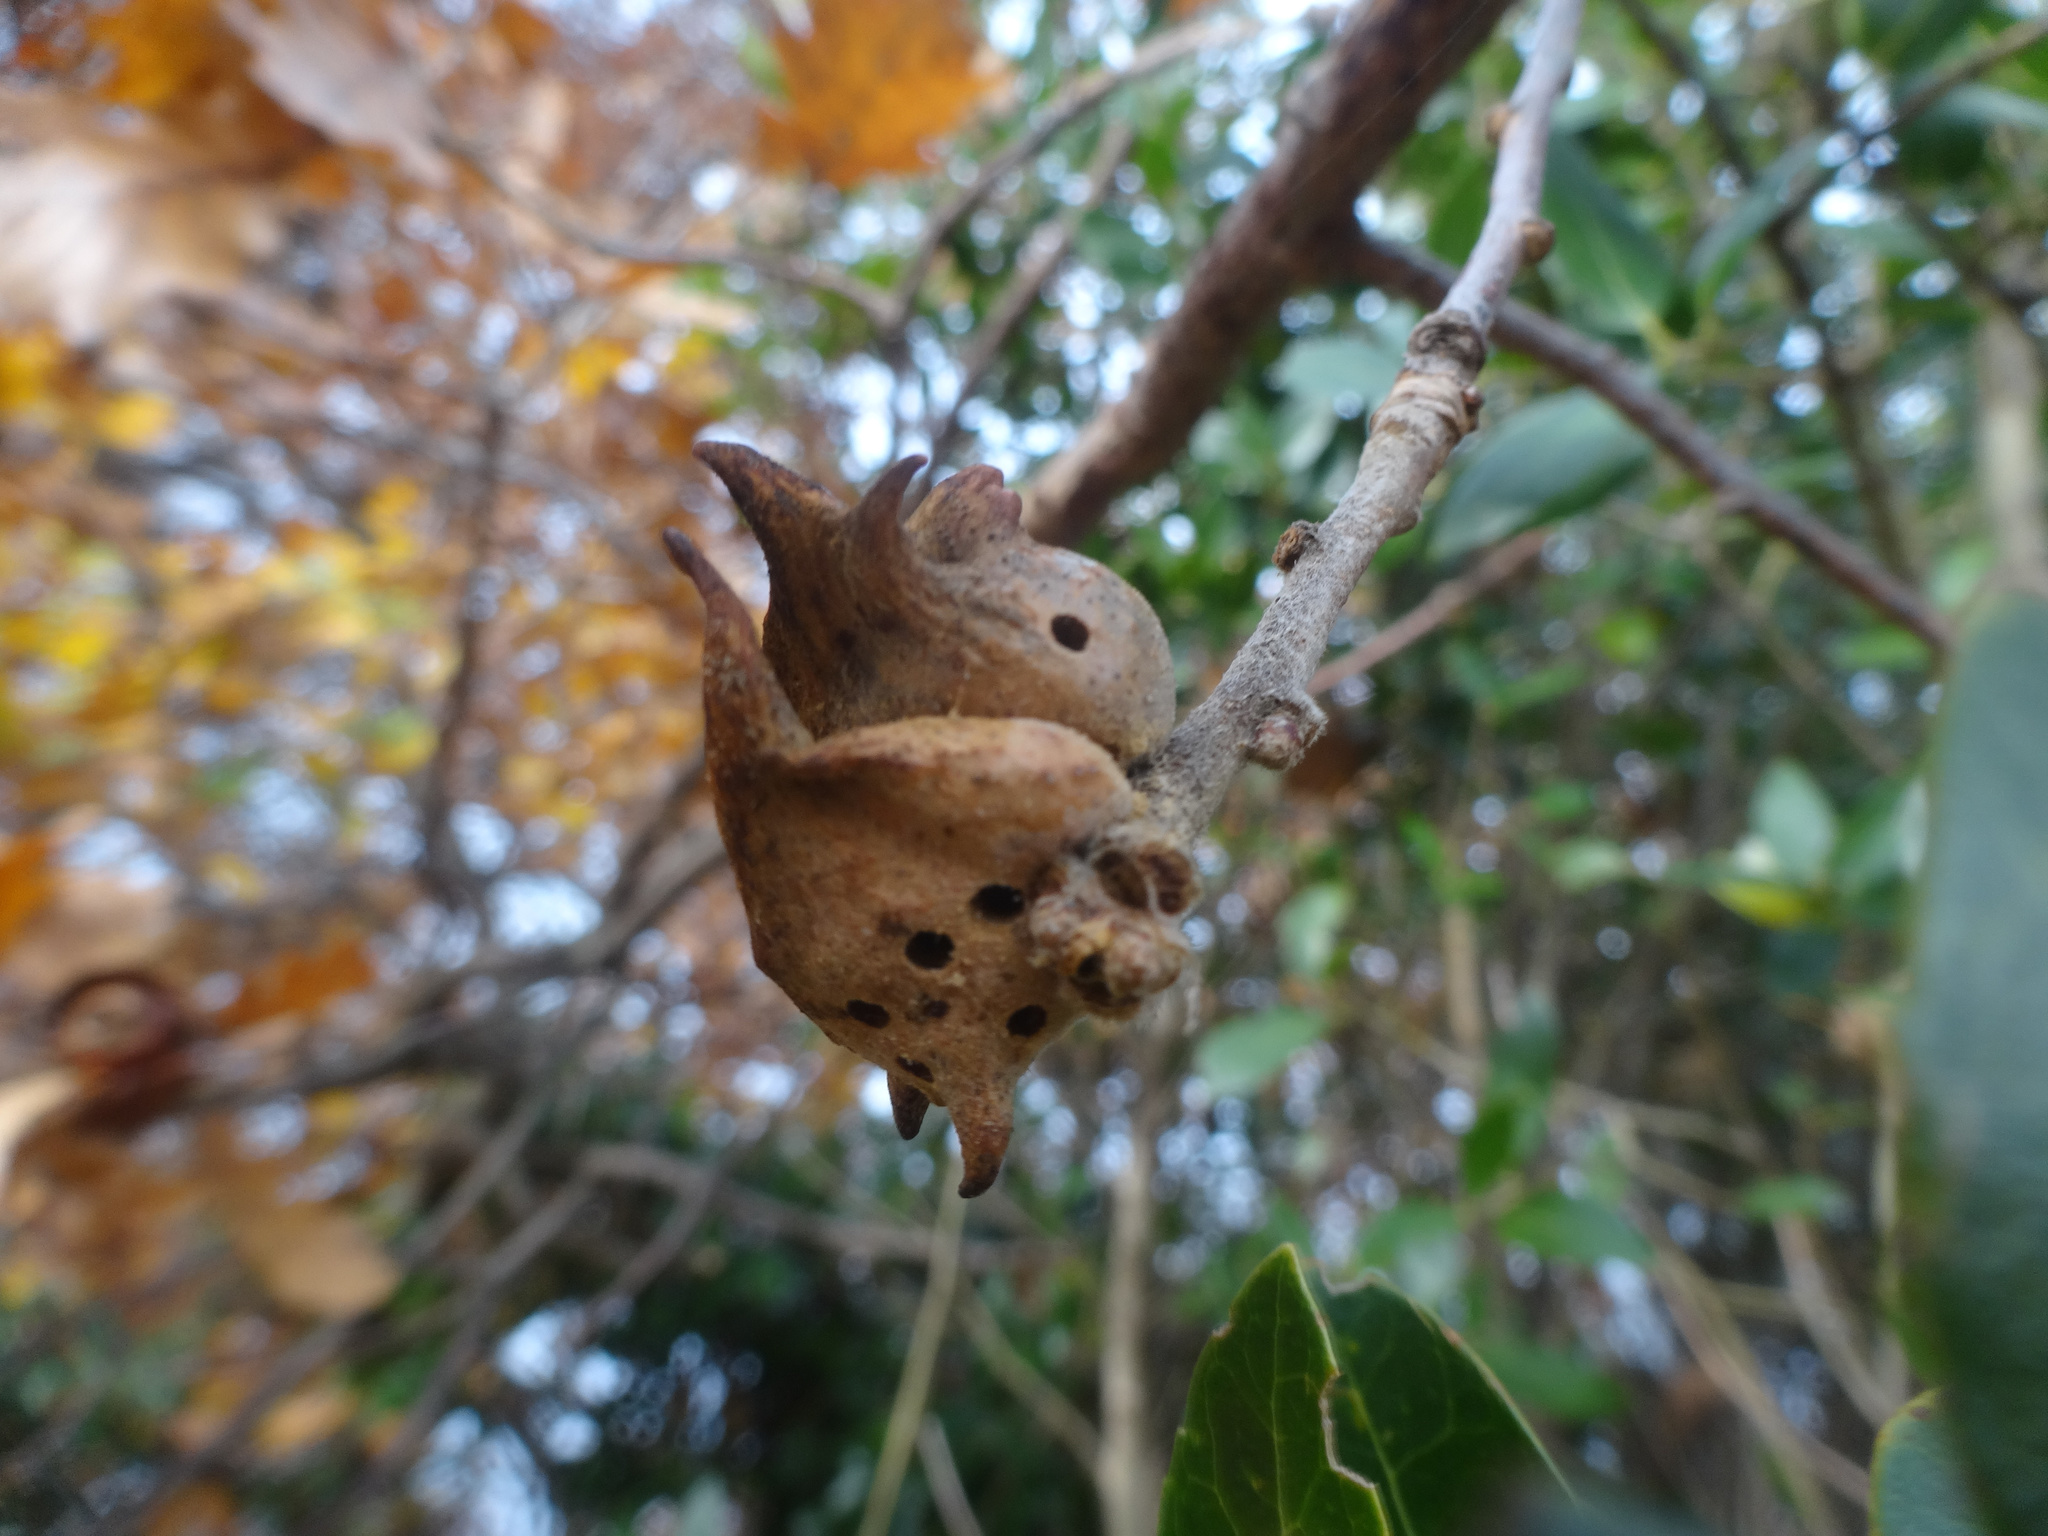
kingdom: Animalia
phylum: Arthropoda
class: Insecta
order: Hymenoptera
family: Cynipidae
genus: Andricus
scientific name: Andricus coriarius
